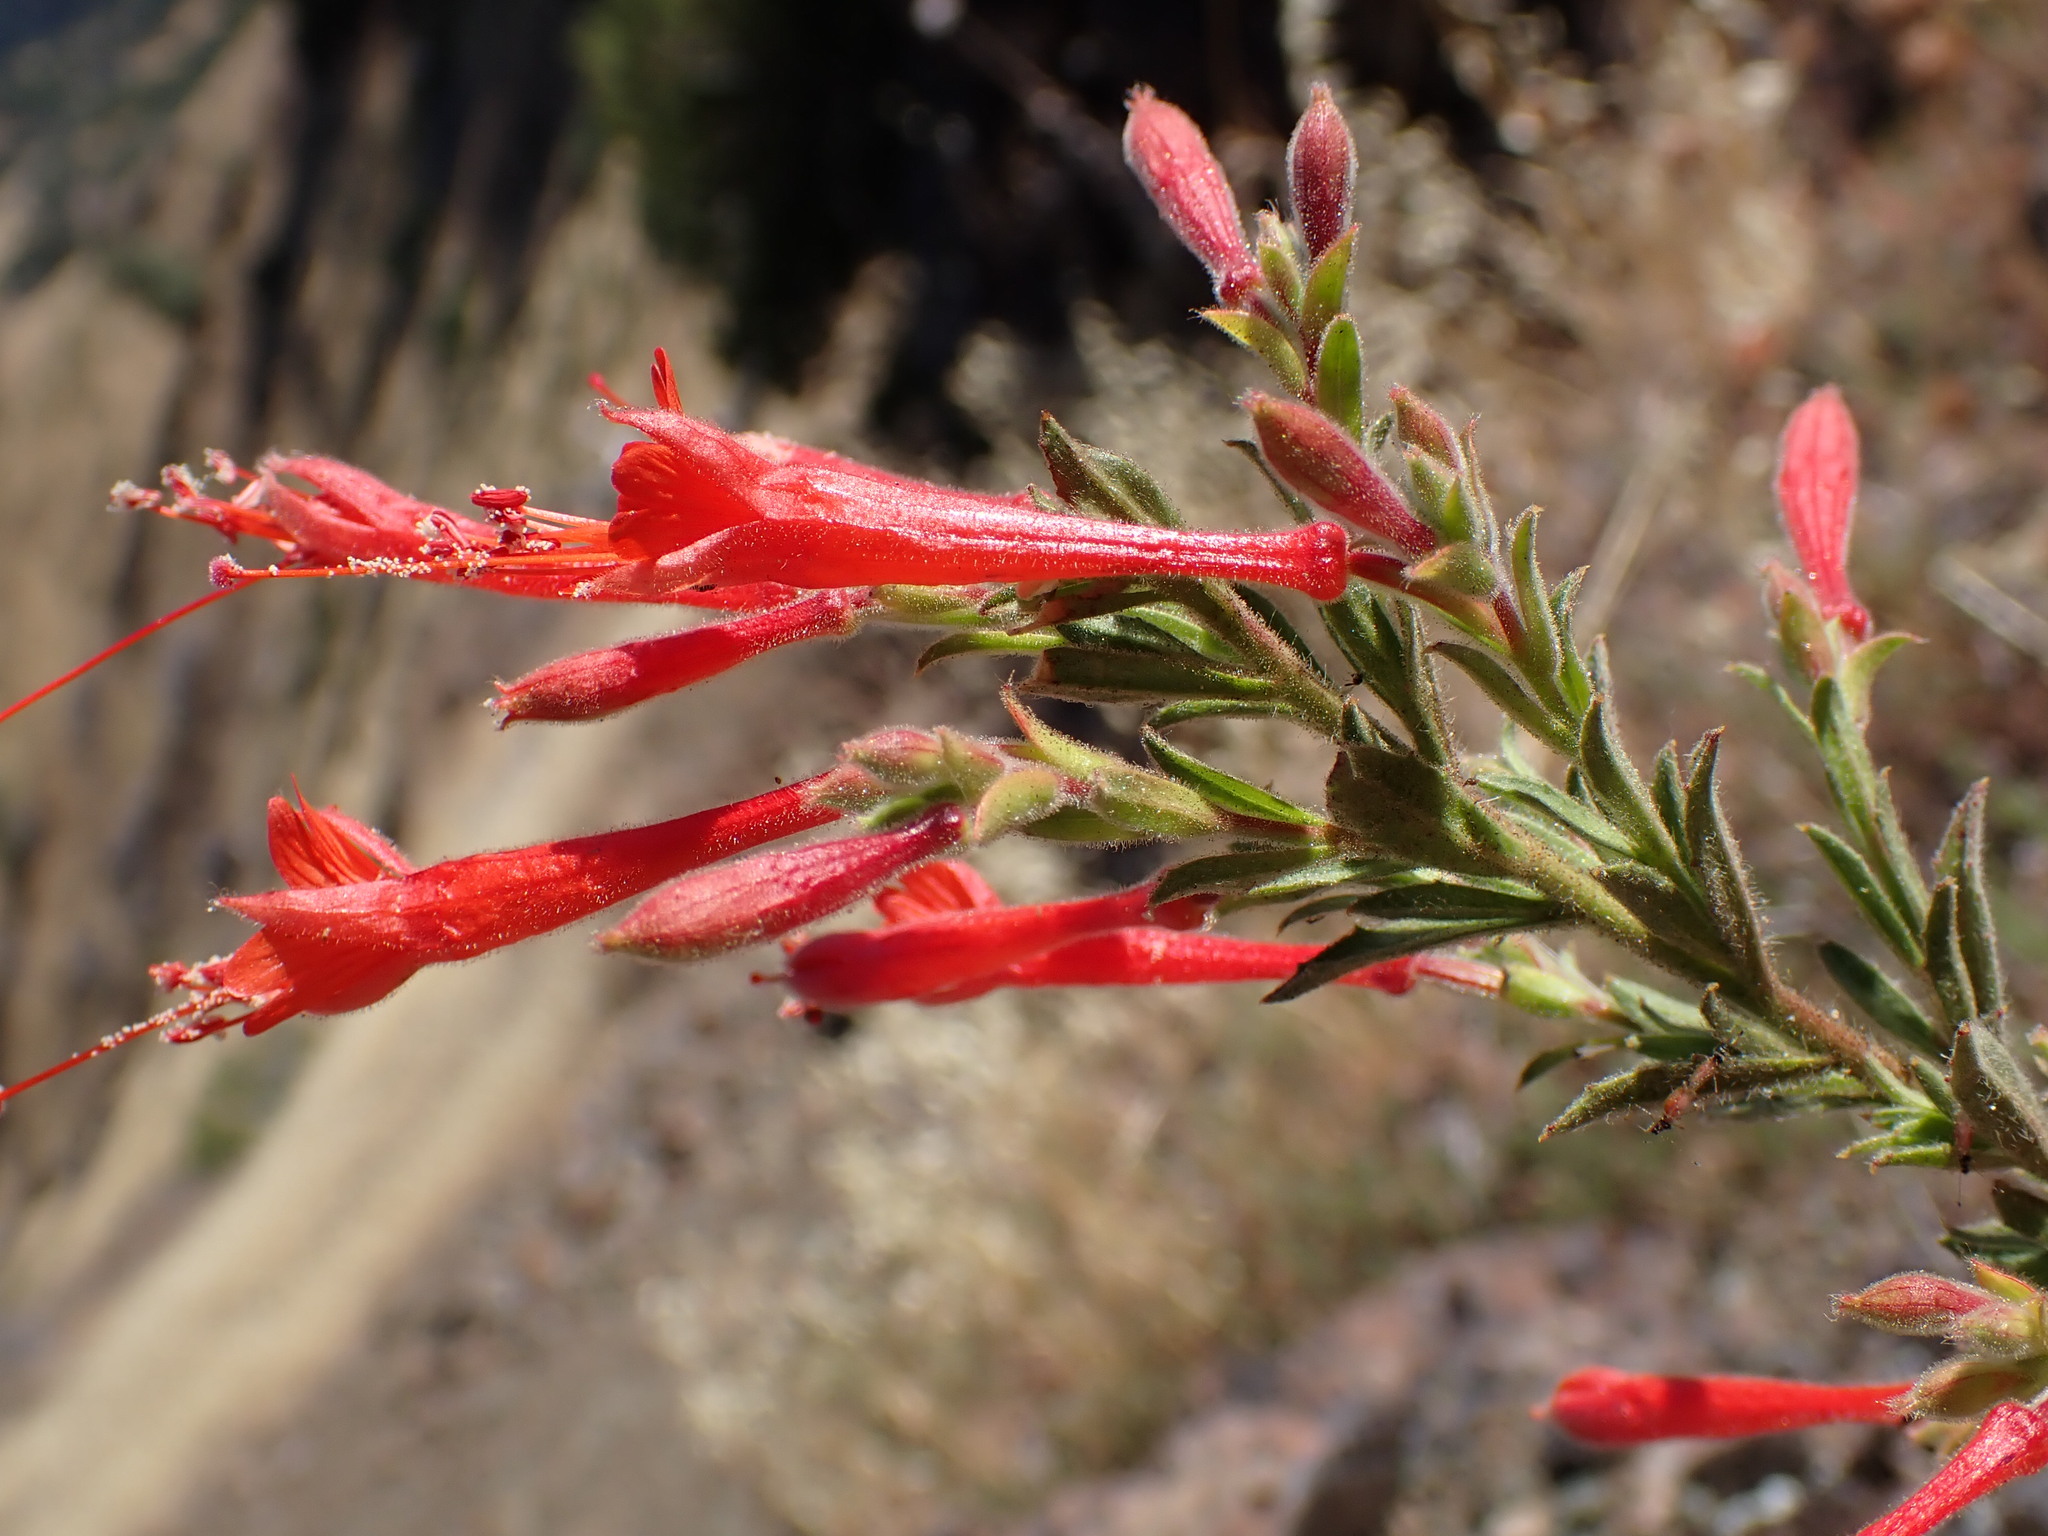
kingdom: Plantae
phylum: Tracheophyta
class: Magnoliopsida
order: Myrtales
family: Onagraceae
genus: Epilobium
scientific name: Epilobium canum
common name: California-fuchsia
